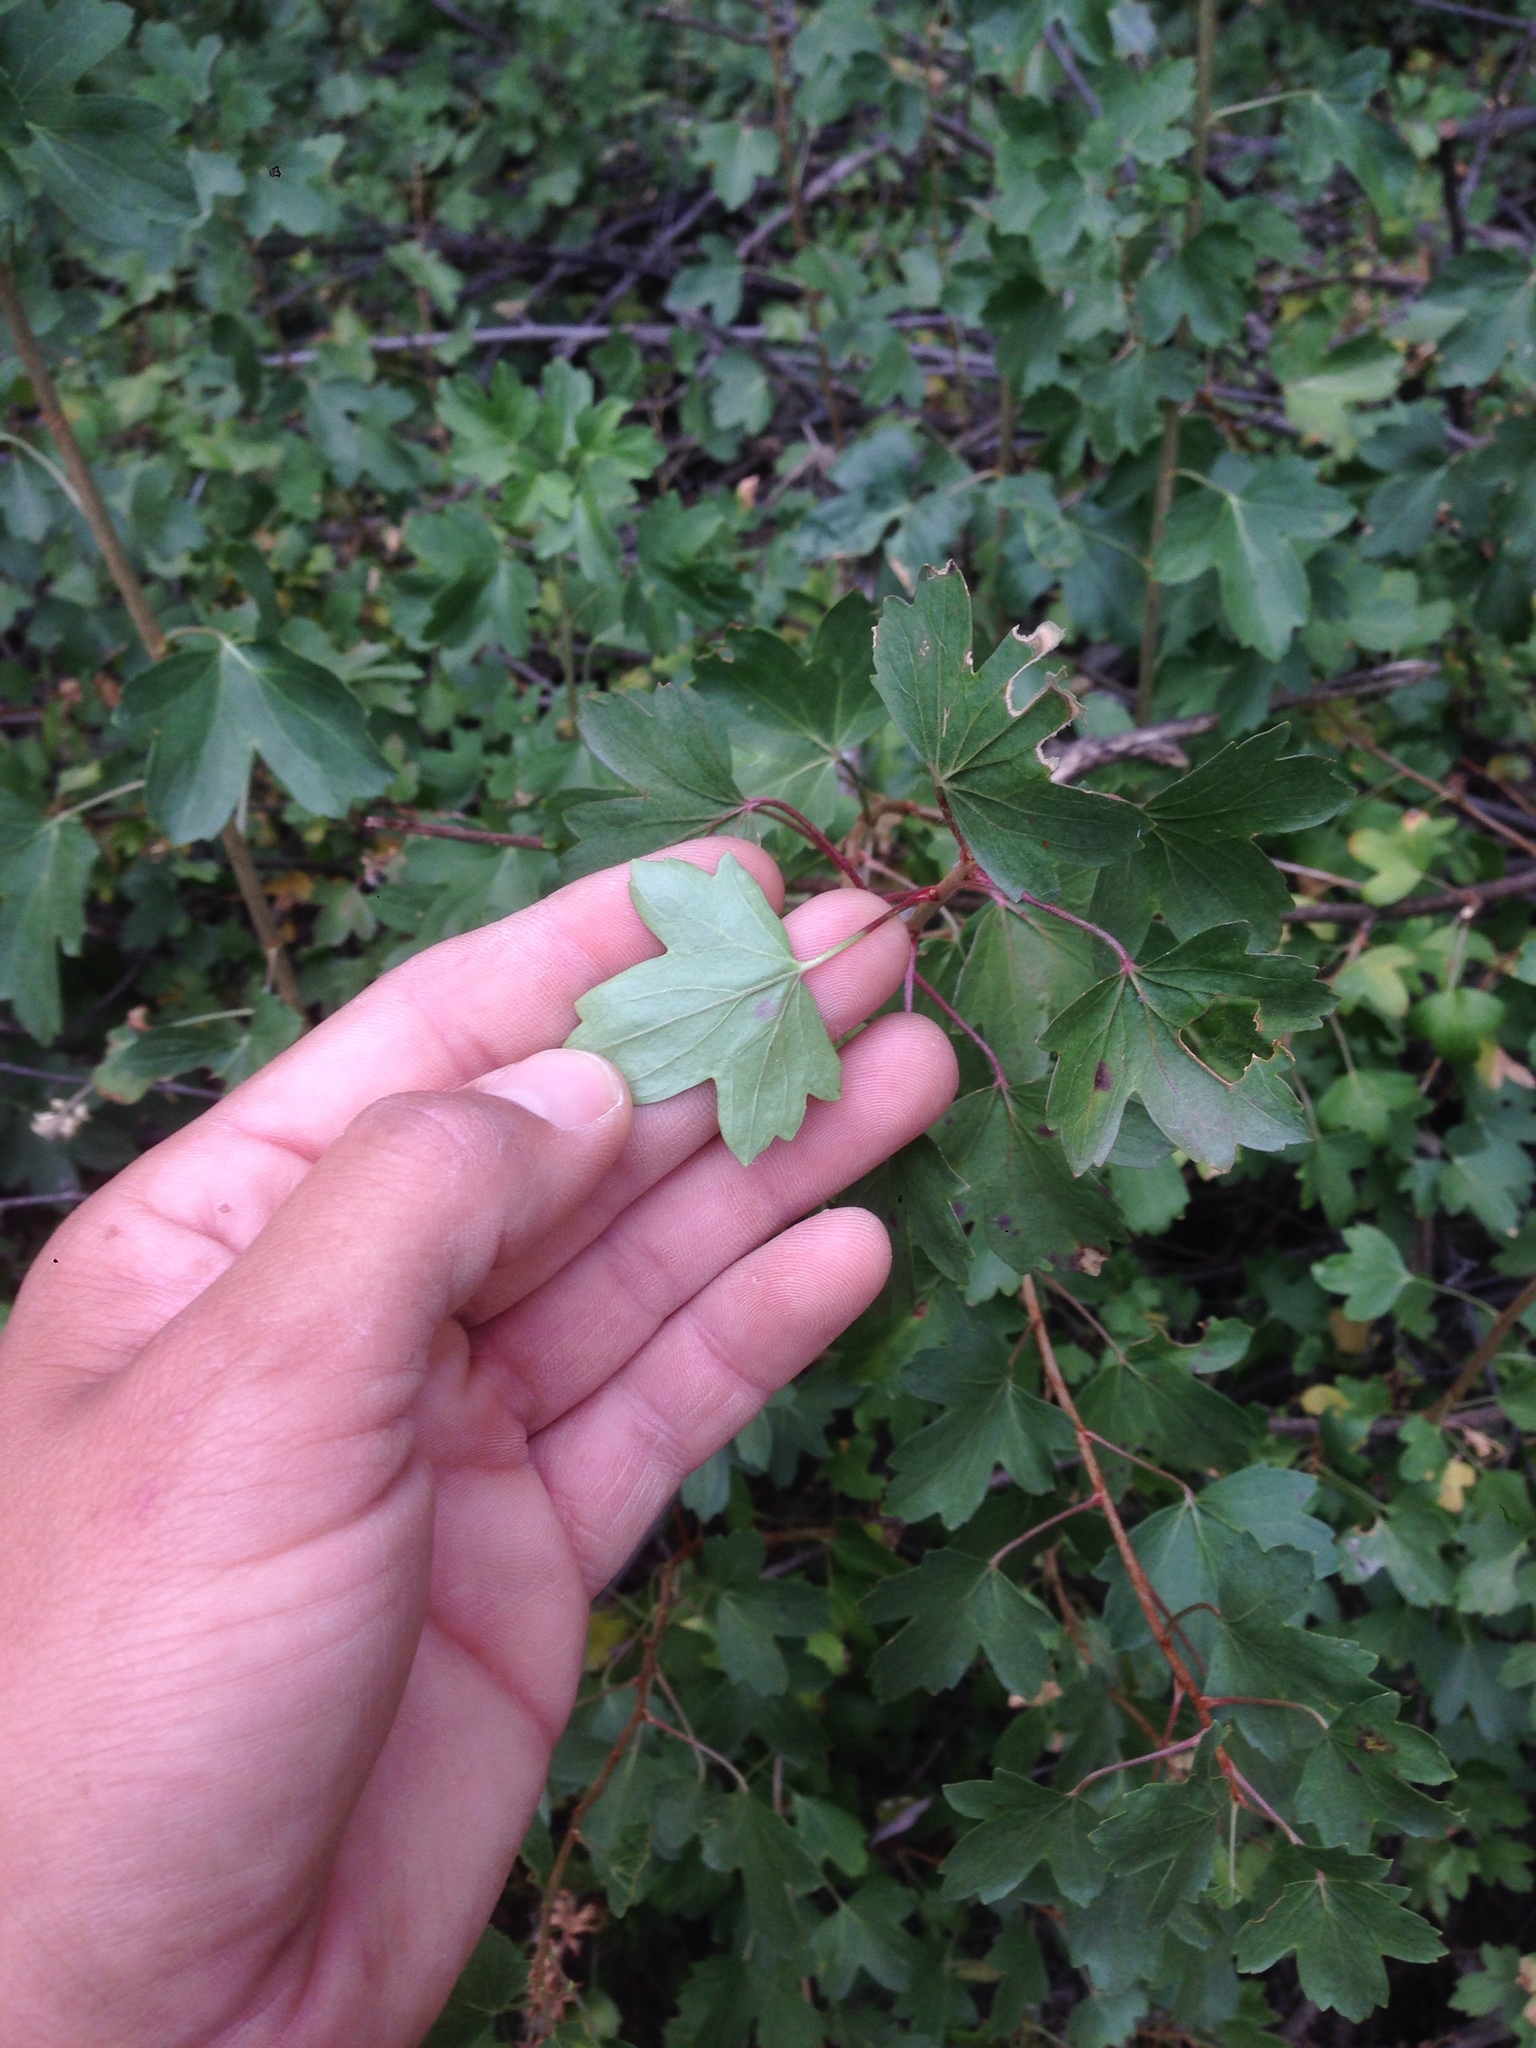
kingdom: Plantae
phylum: Tracheophyta
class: Magnoliopsida
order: Saxifragales
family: Grossulariaceae
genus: Ribes
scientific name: Ribes aureum
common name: Golden currant
